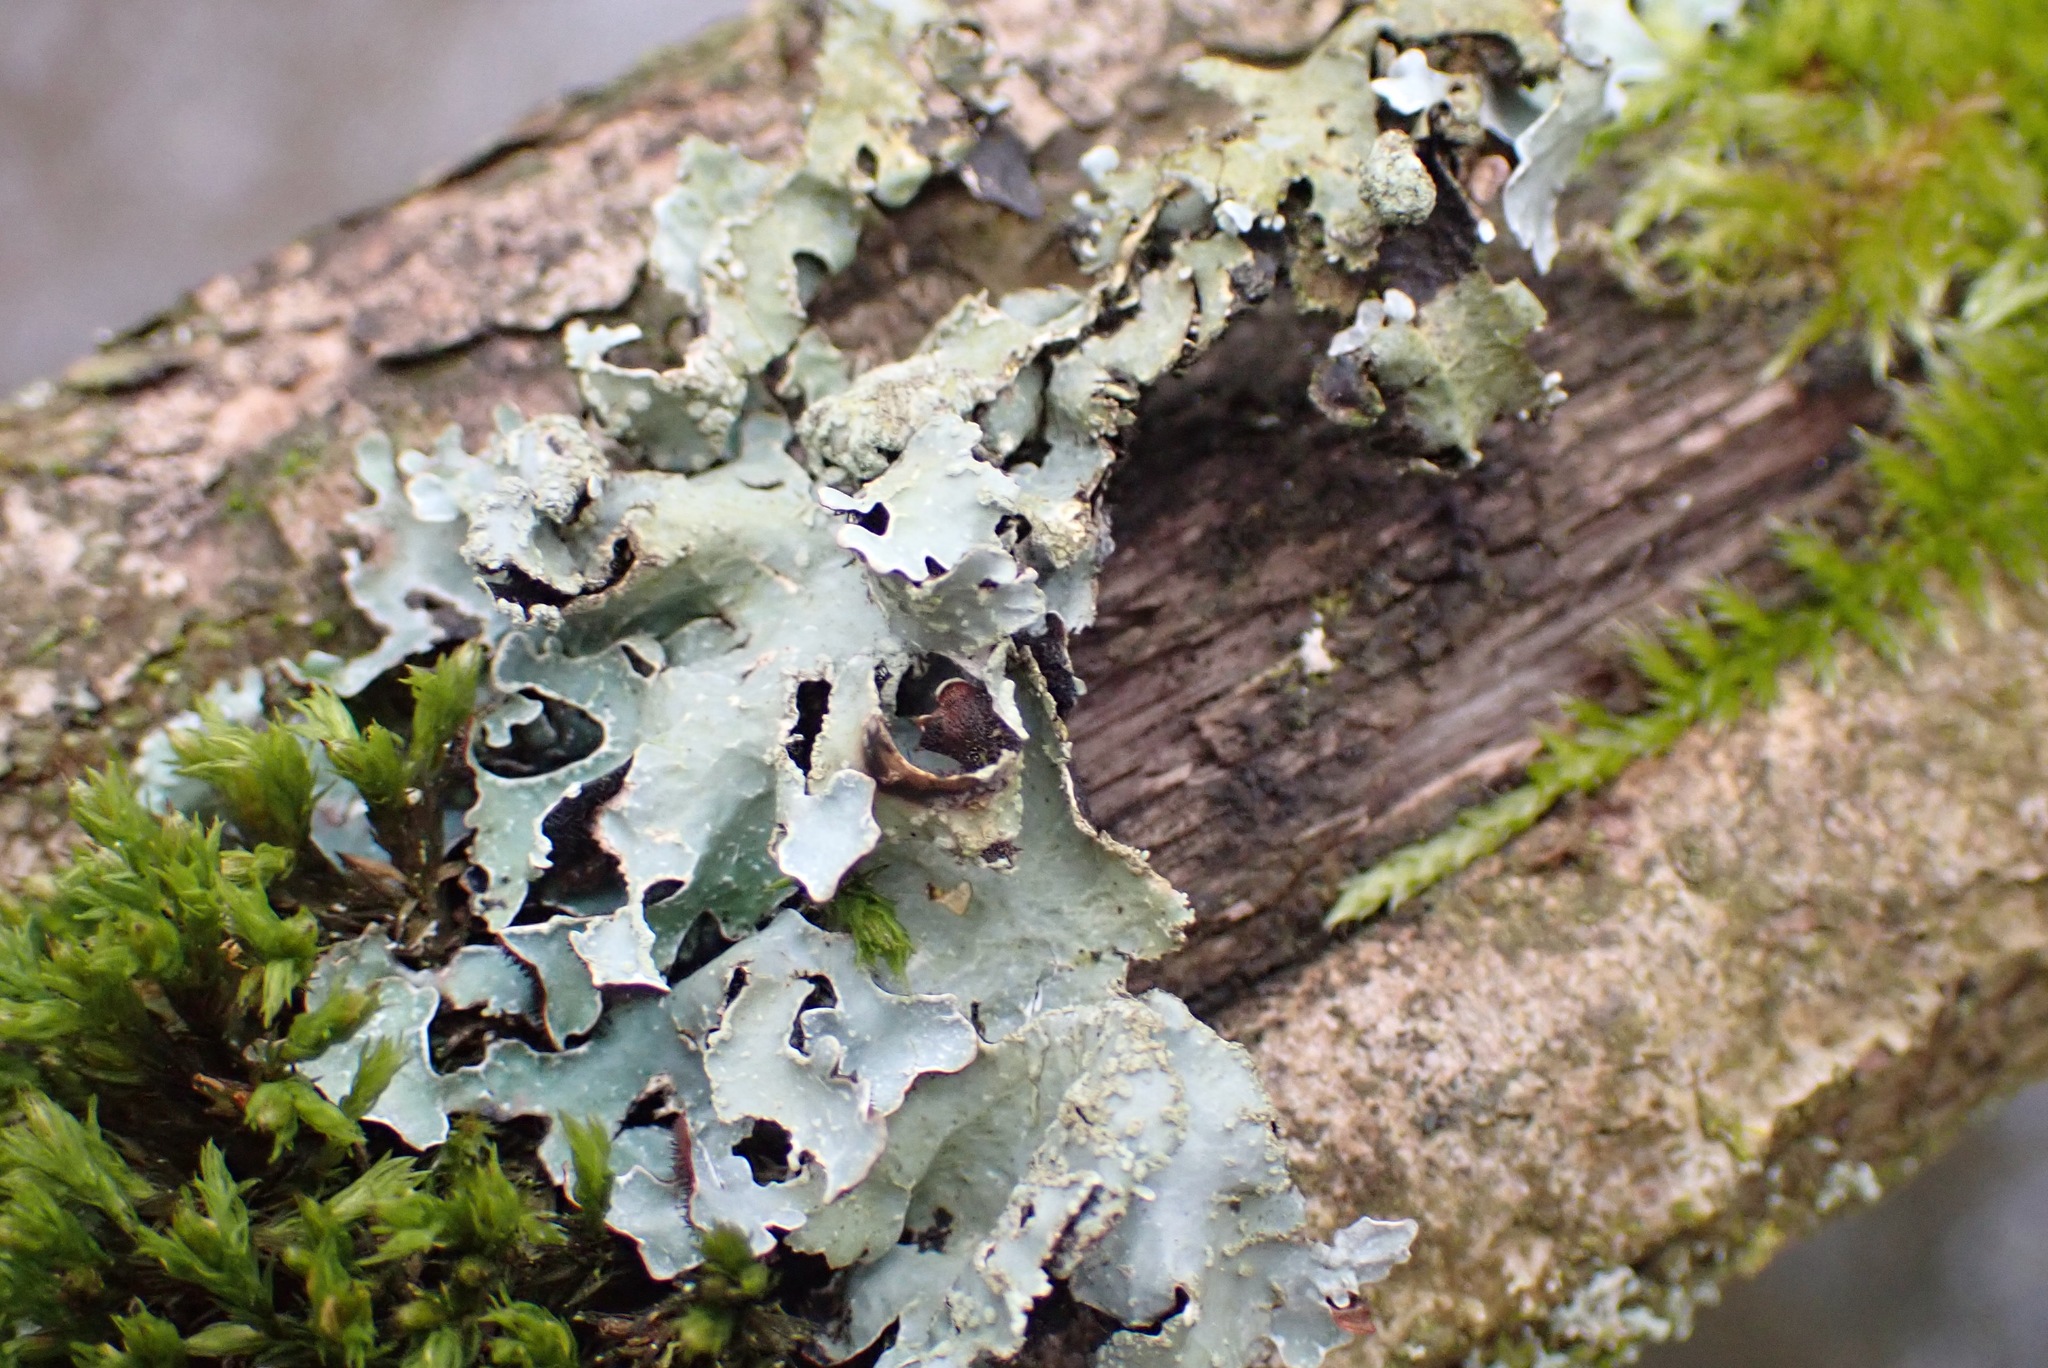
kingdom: Fungi
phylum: Ascomycota
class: Lecanoromycetes
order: Lecanorales
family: Parmeliaceae
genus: Parmelia
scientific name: Parmelia sulcata
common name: Netted shield lichen
